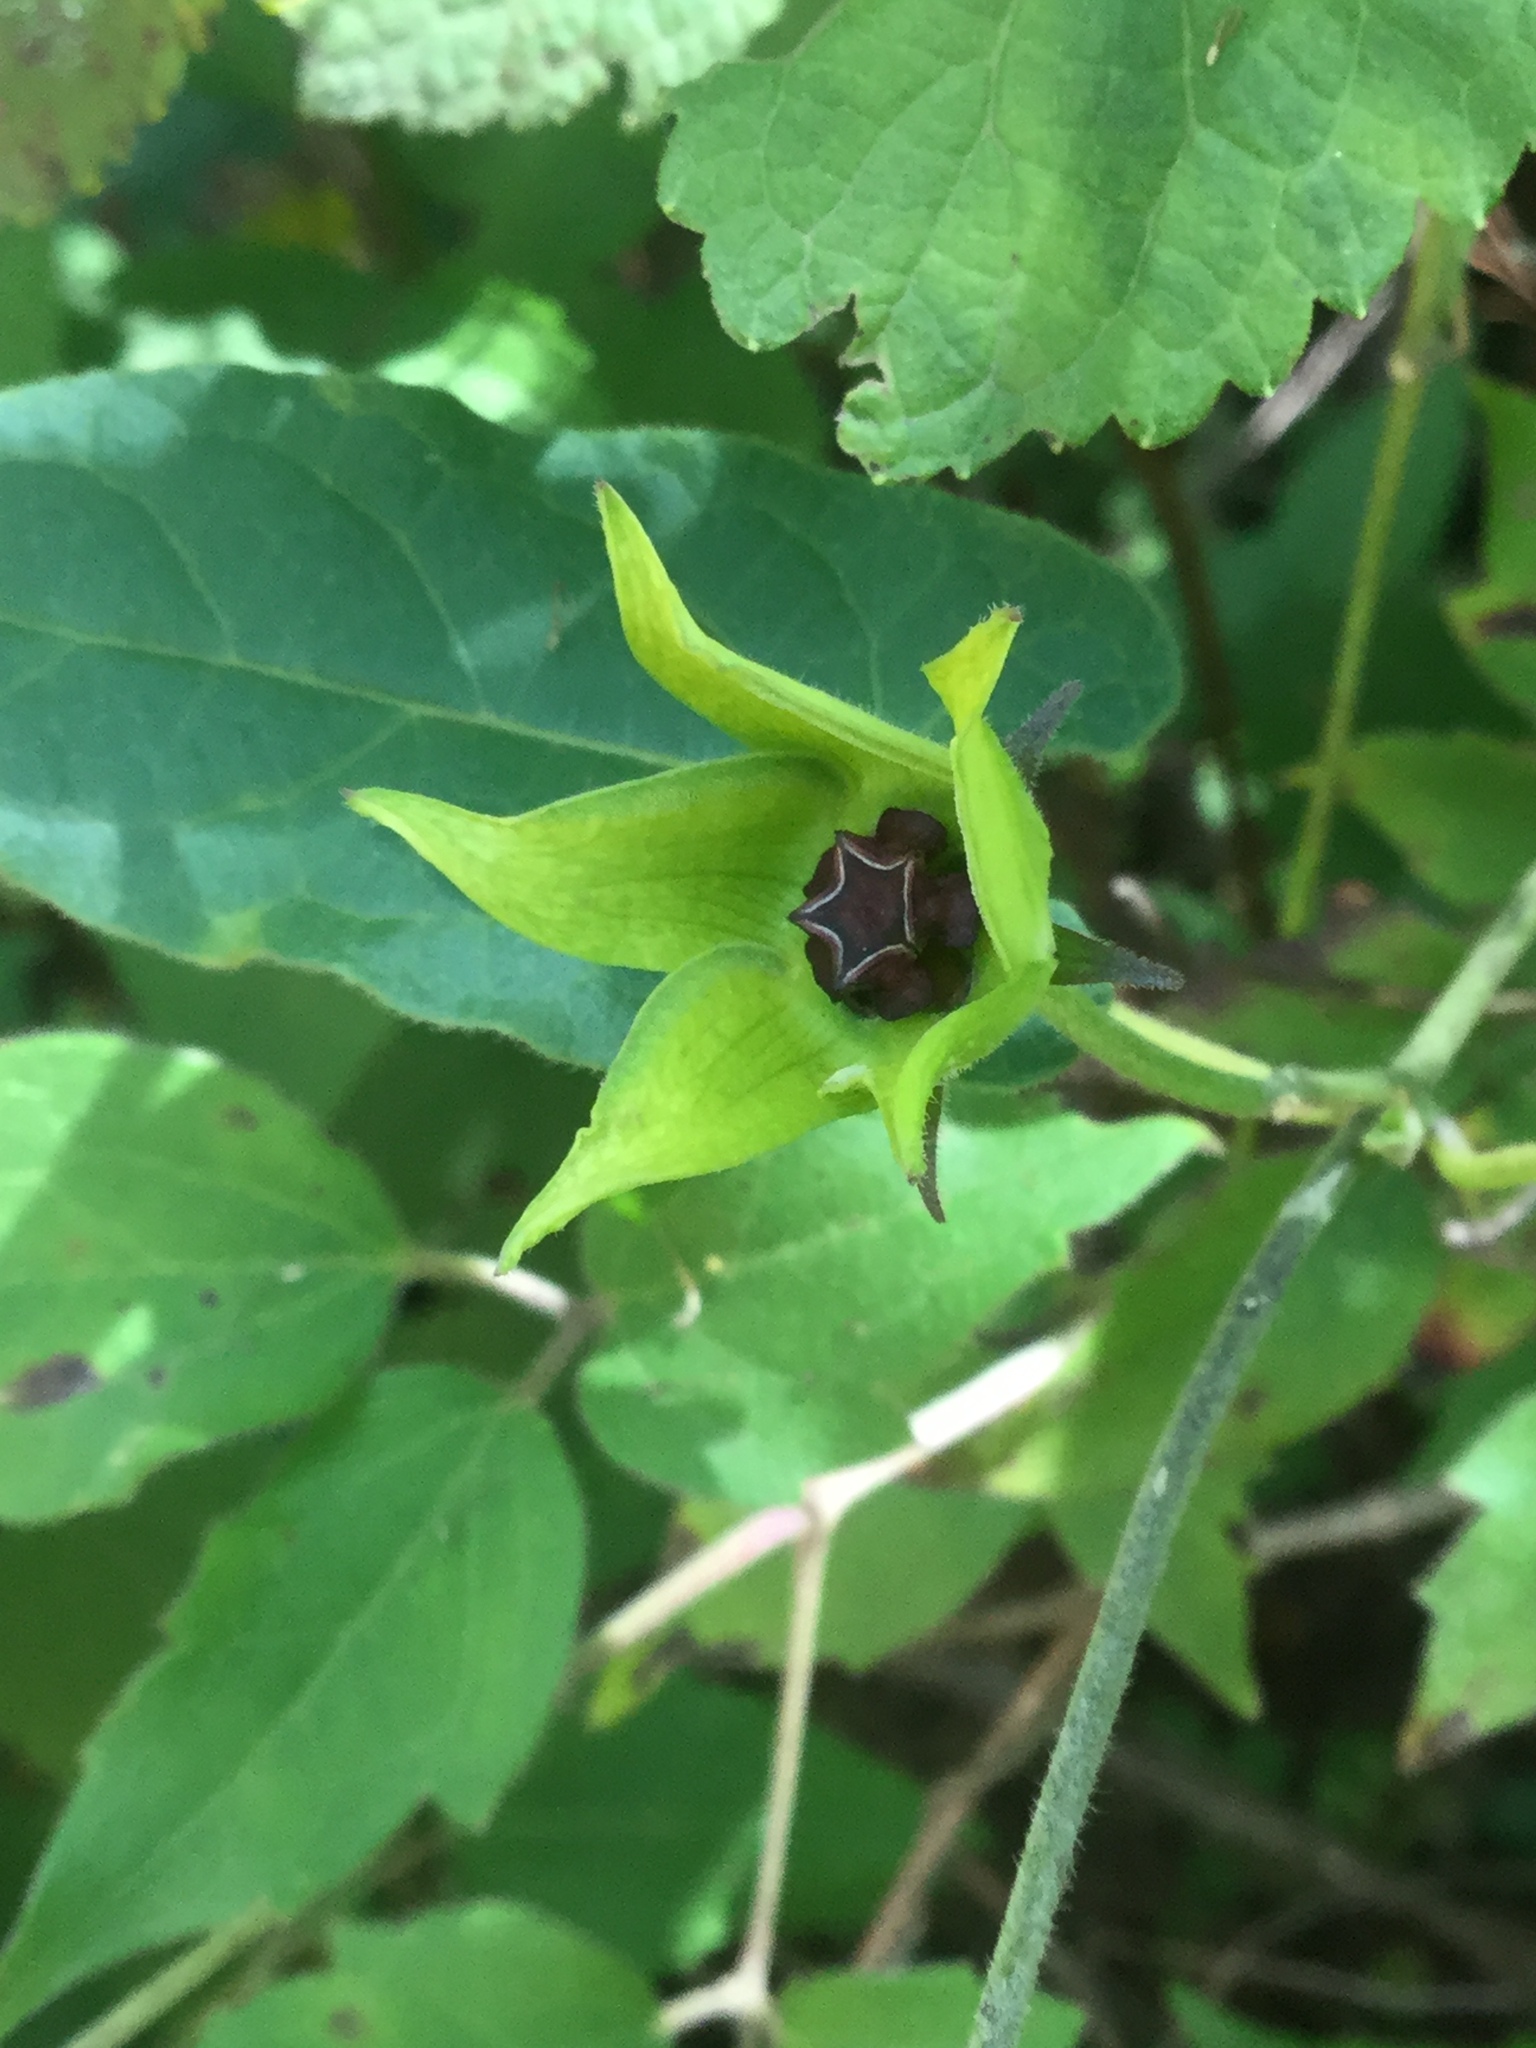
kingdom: Plantae
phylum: Tracheophyta
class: Magnoliopsida
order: Gentianales
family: Apocynaceae
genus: Gonolobus
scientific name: Gonolobus uniflorus
